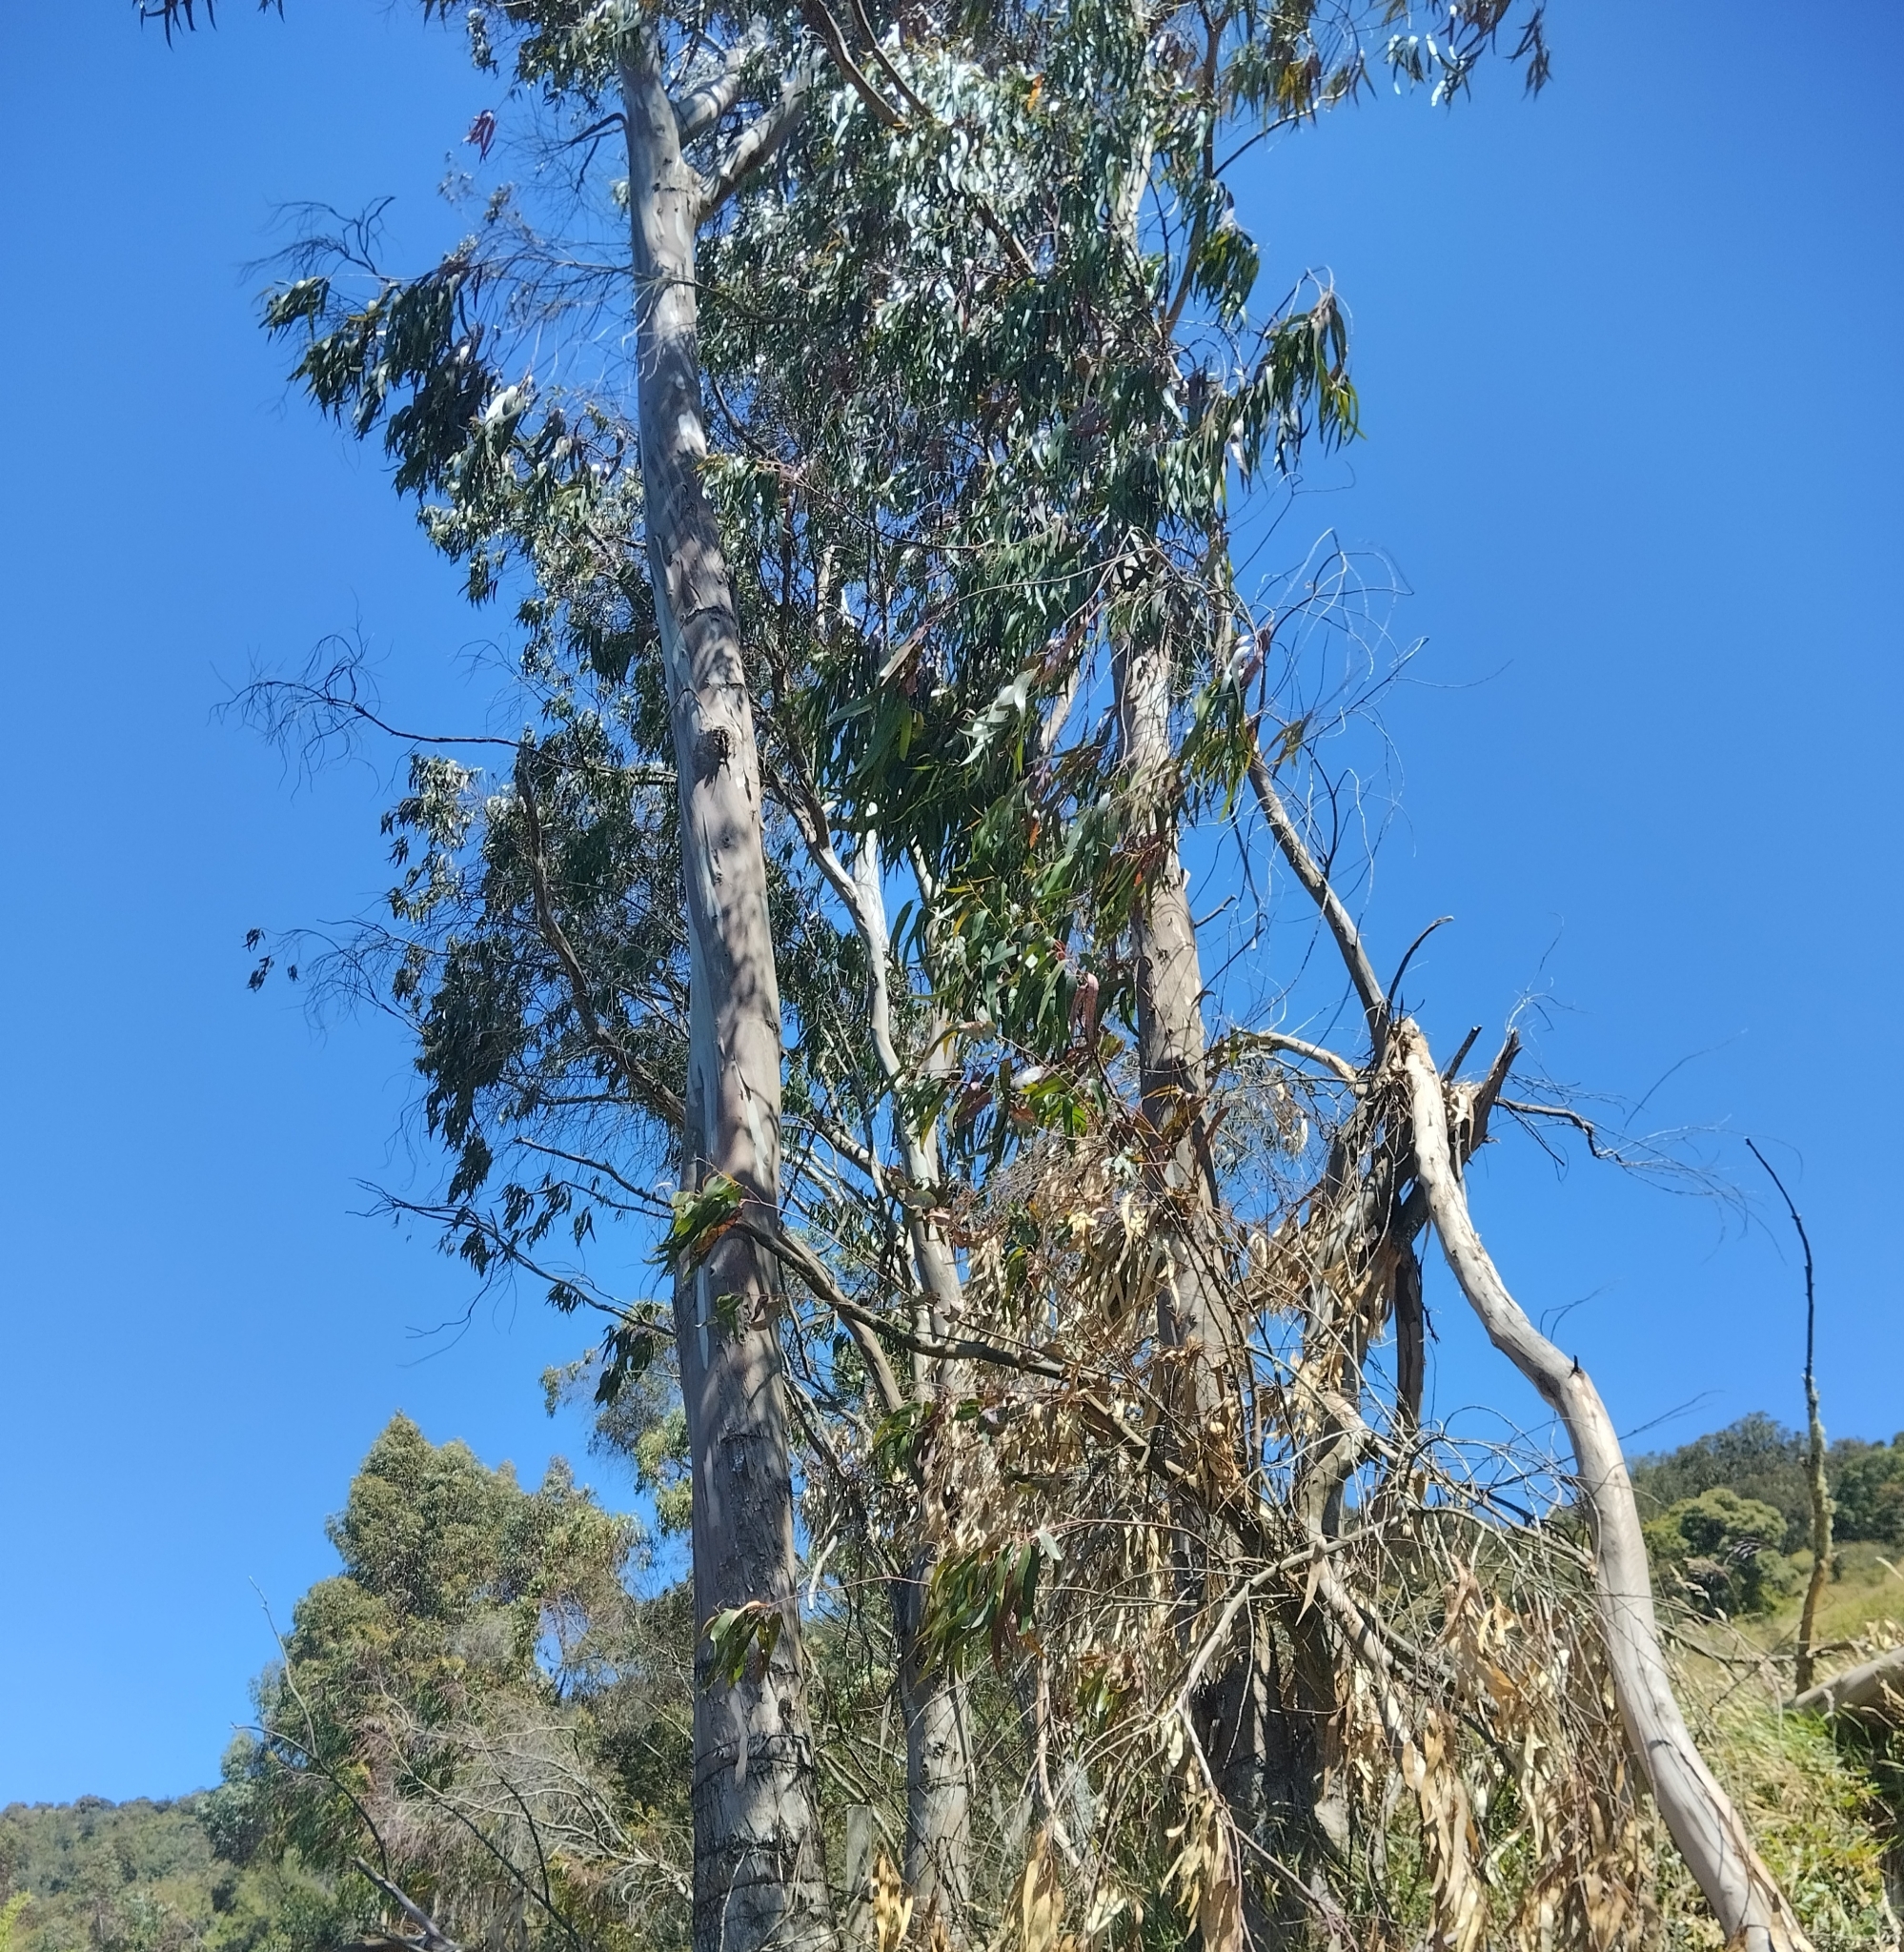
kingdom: Plantae
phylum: Tracheophyta
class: Magnoliopsida
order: Myrtales
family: Myrtaceae
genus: Eucalyptus
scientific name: Eucalyptus globulus
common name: Southern blue-gum
